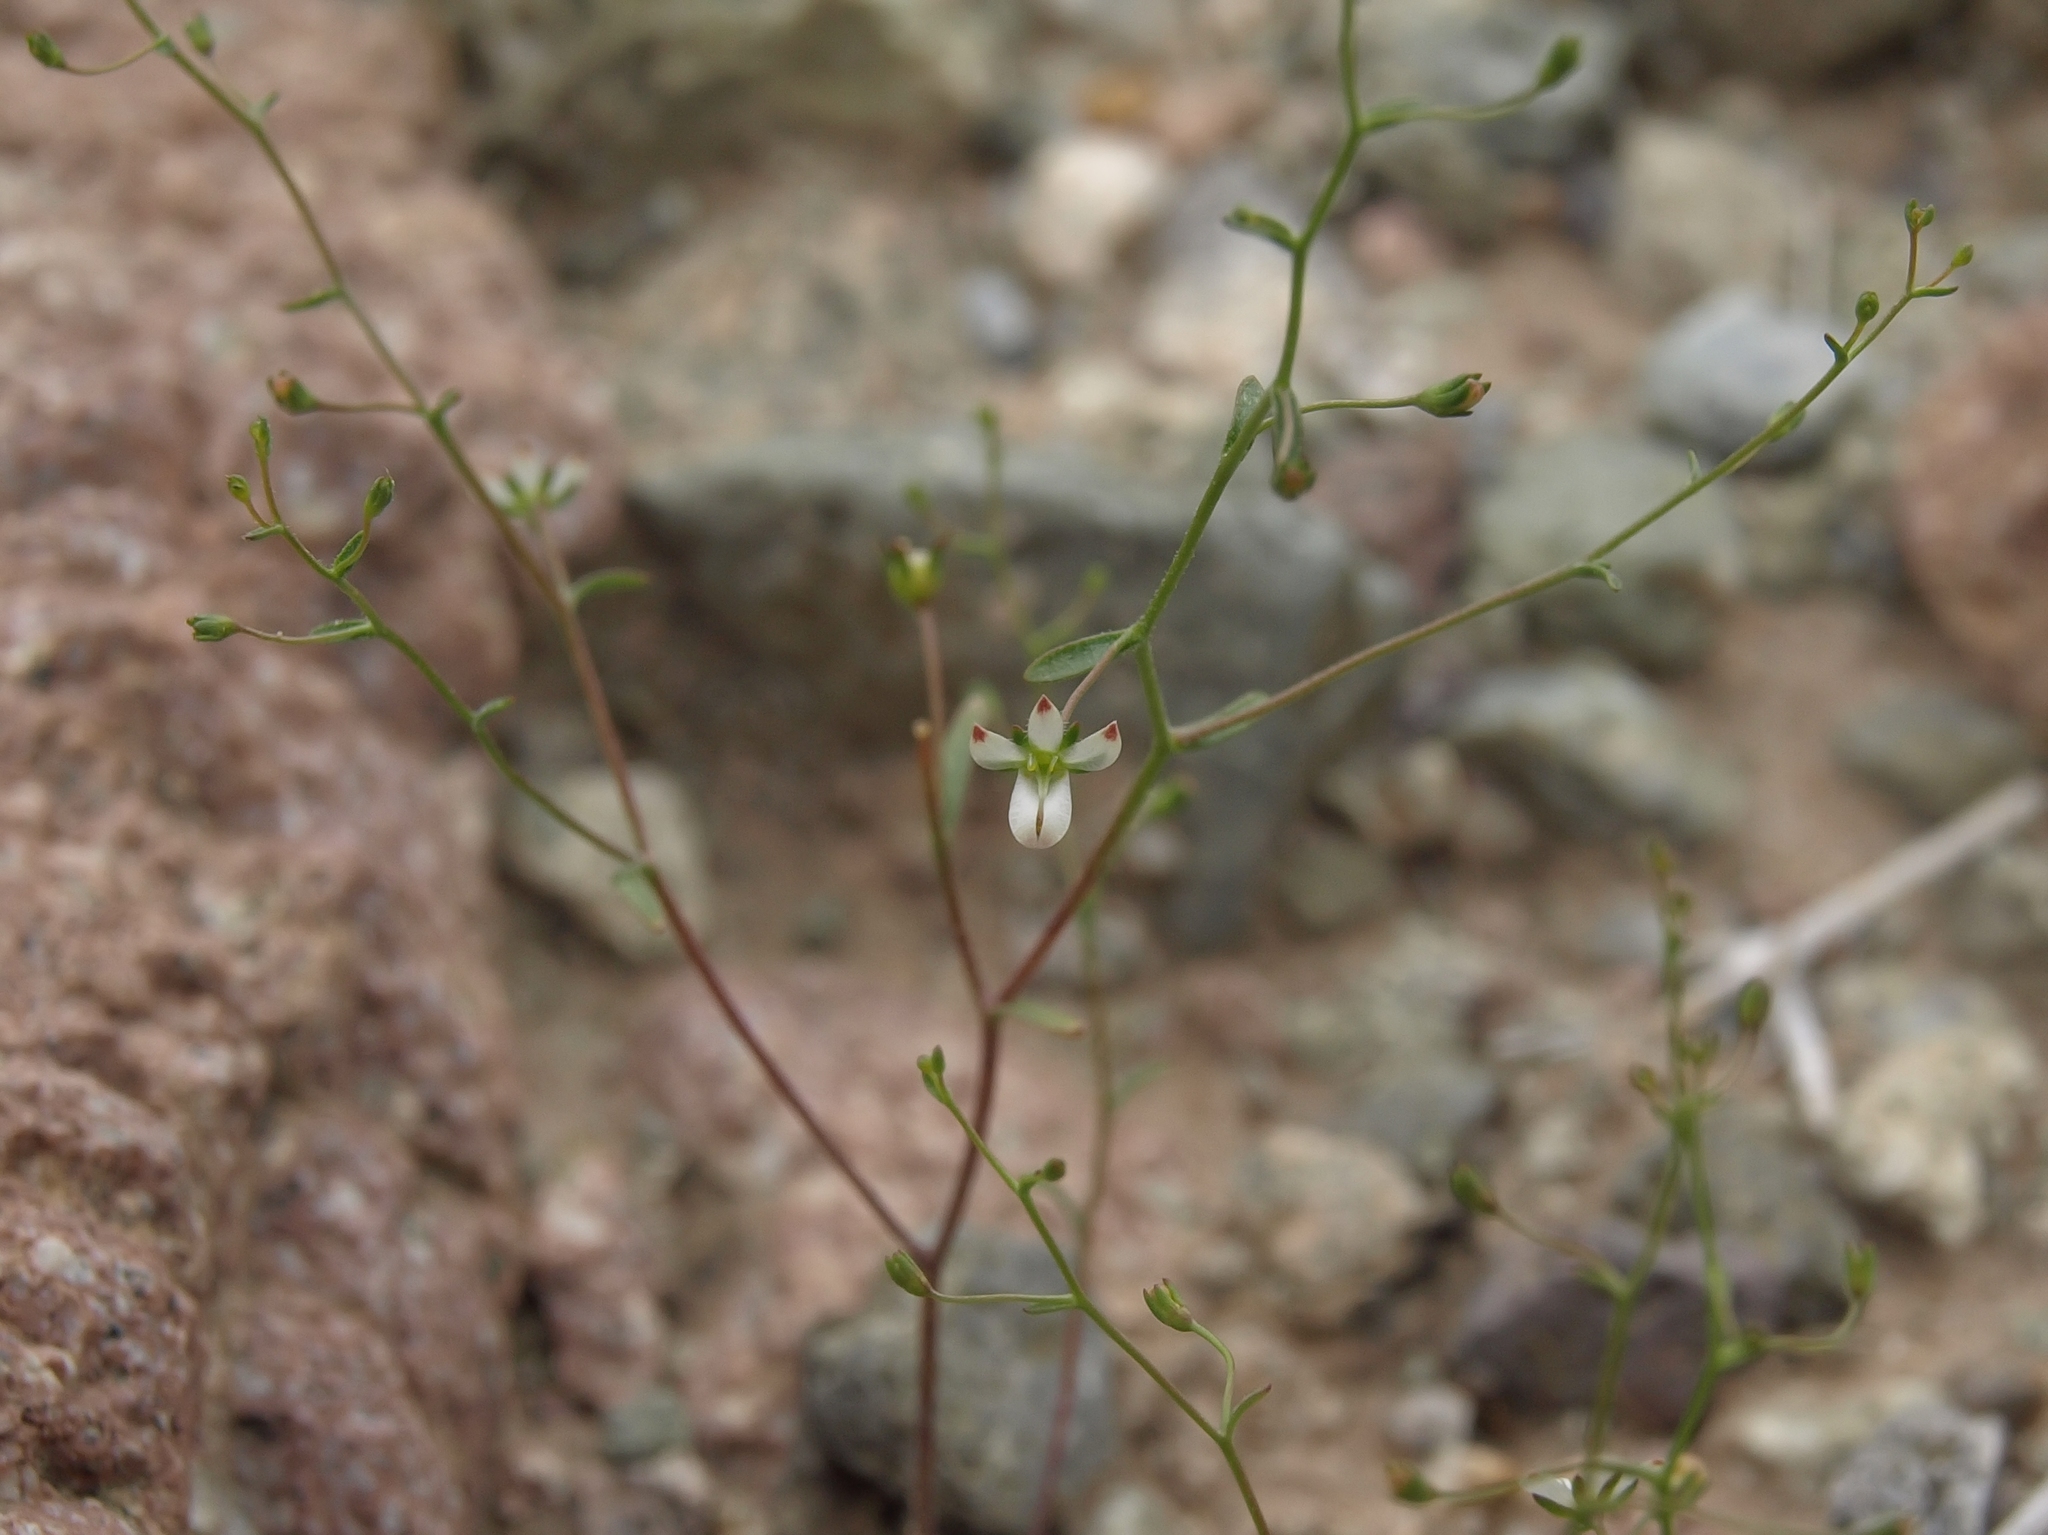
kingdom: Plantae
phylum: Tracheophyta
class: Magnoliopsida
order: Asterales
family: Campanulaceae
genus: Nemacladus
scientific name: Nemacladus orientalis
